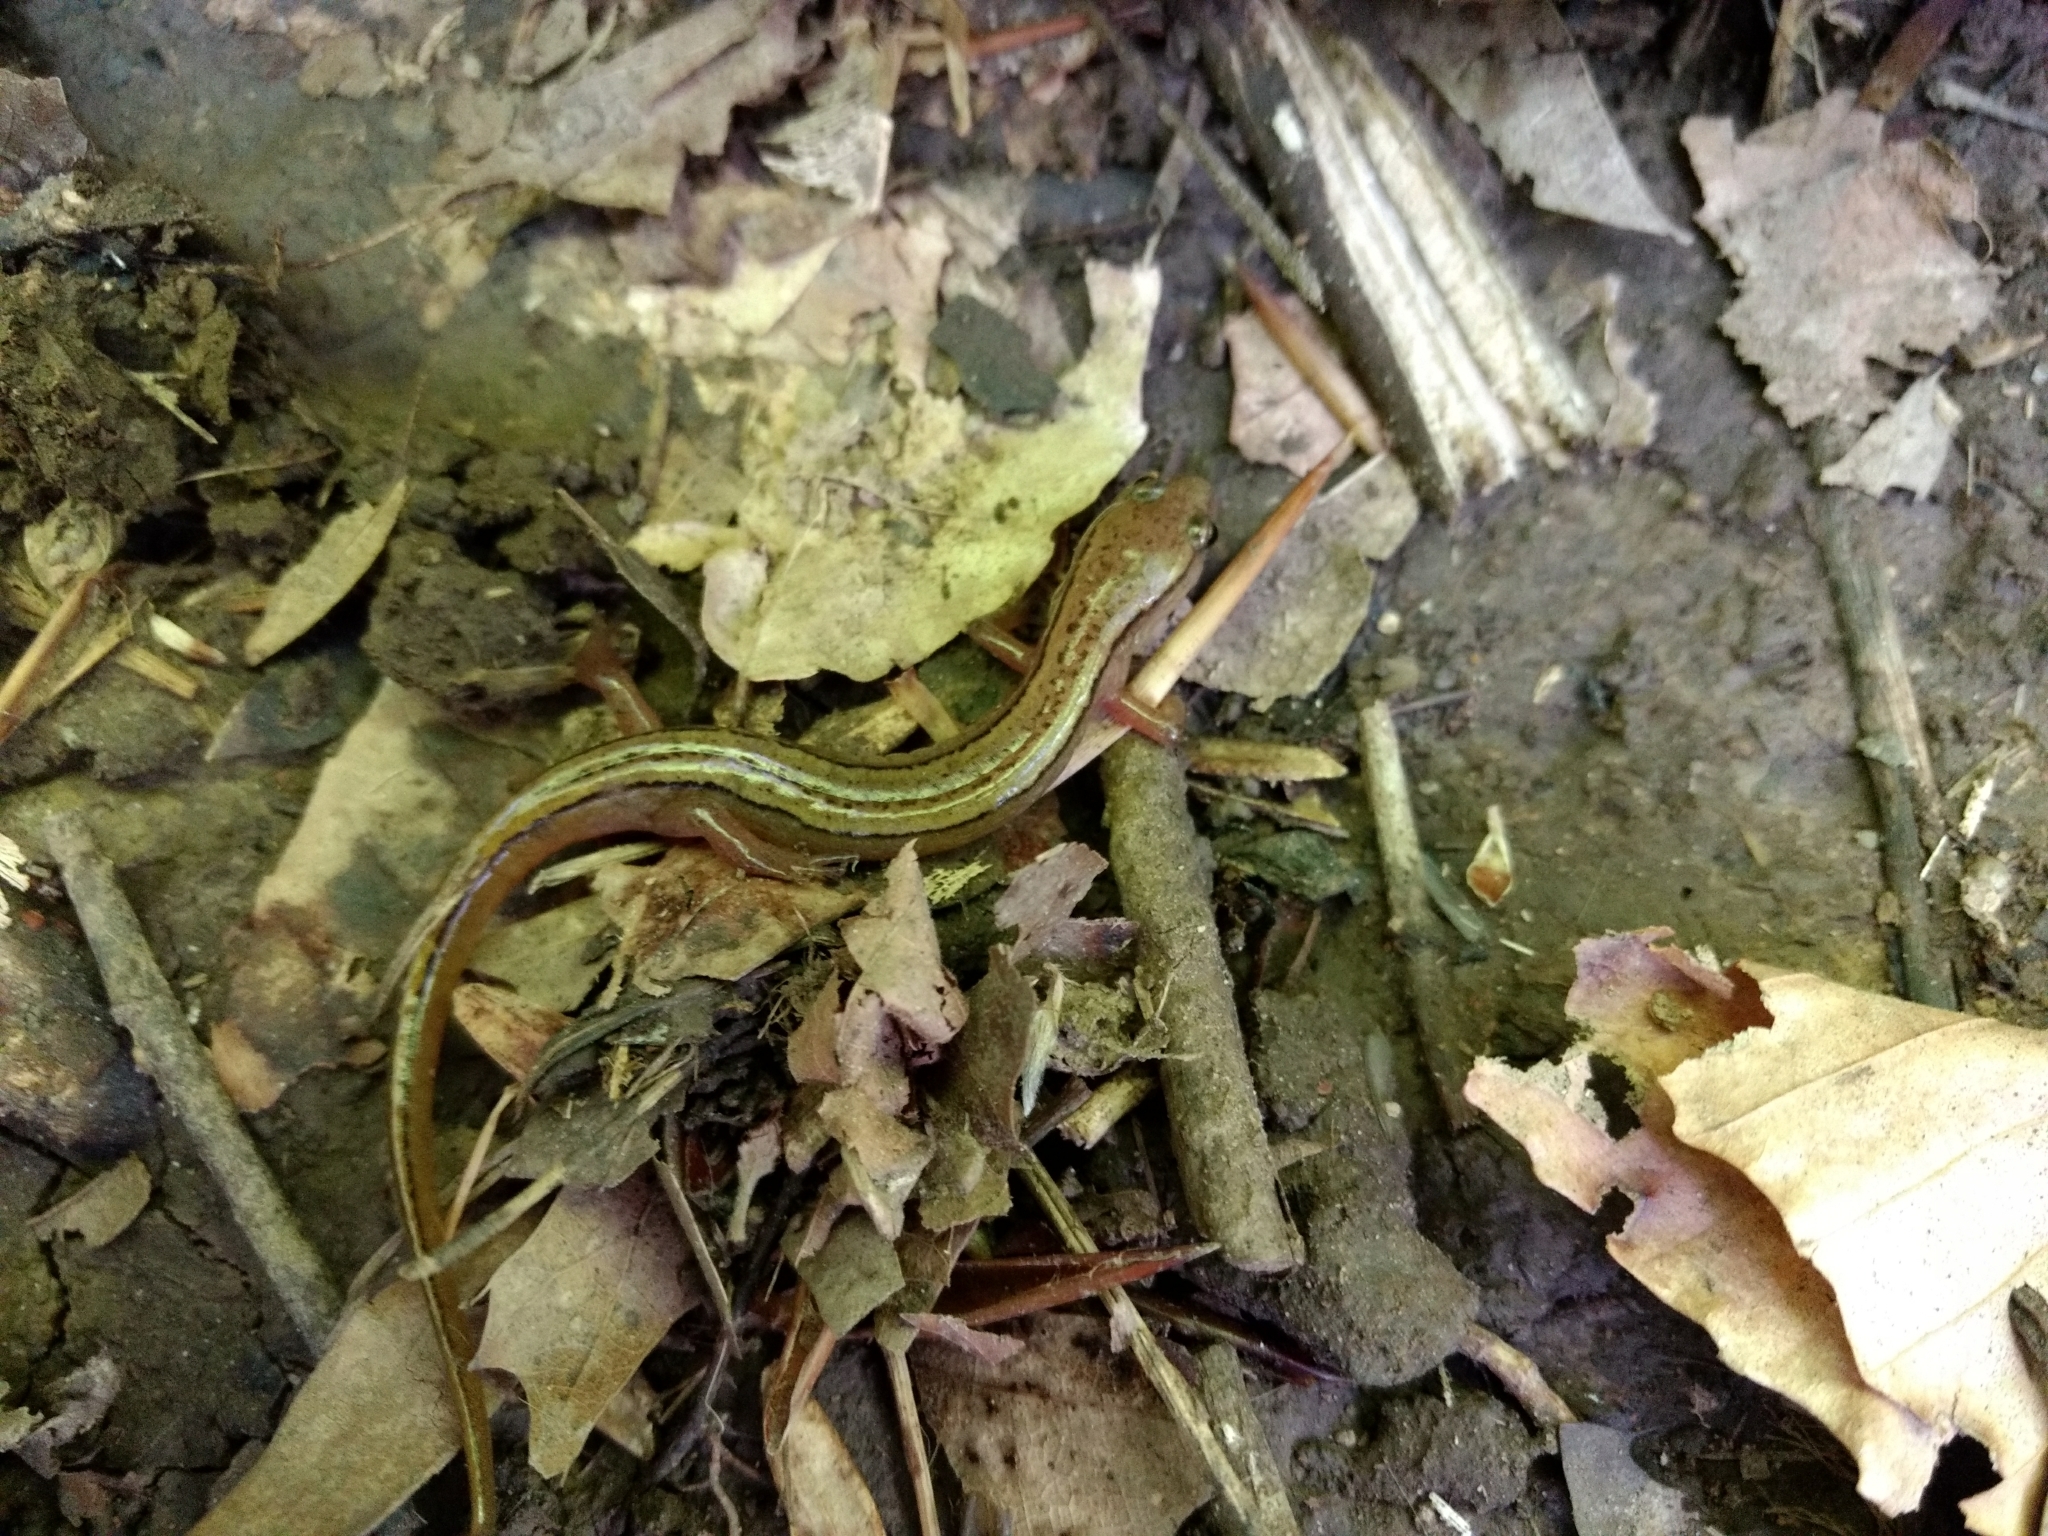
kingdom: Animalia
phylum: Chordata
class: Amphibia
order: Caudata
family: Plethodontidae
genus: Eurycea
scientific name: Eurycea aquatica
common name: Brown-backed salamander
